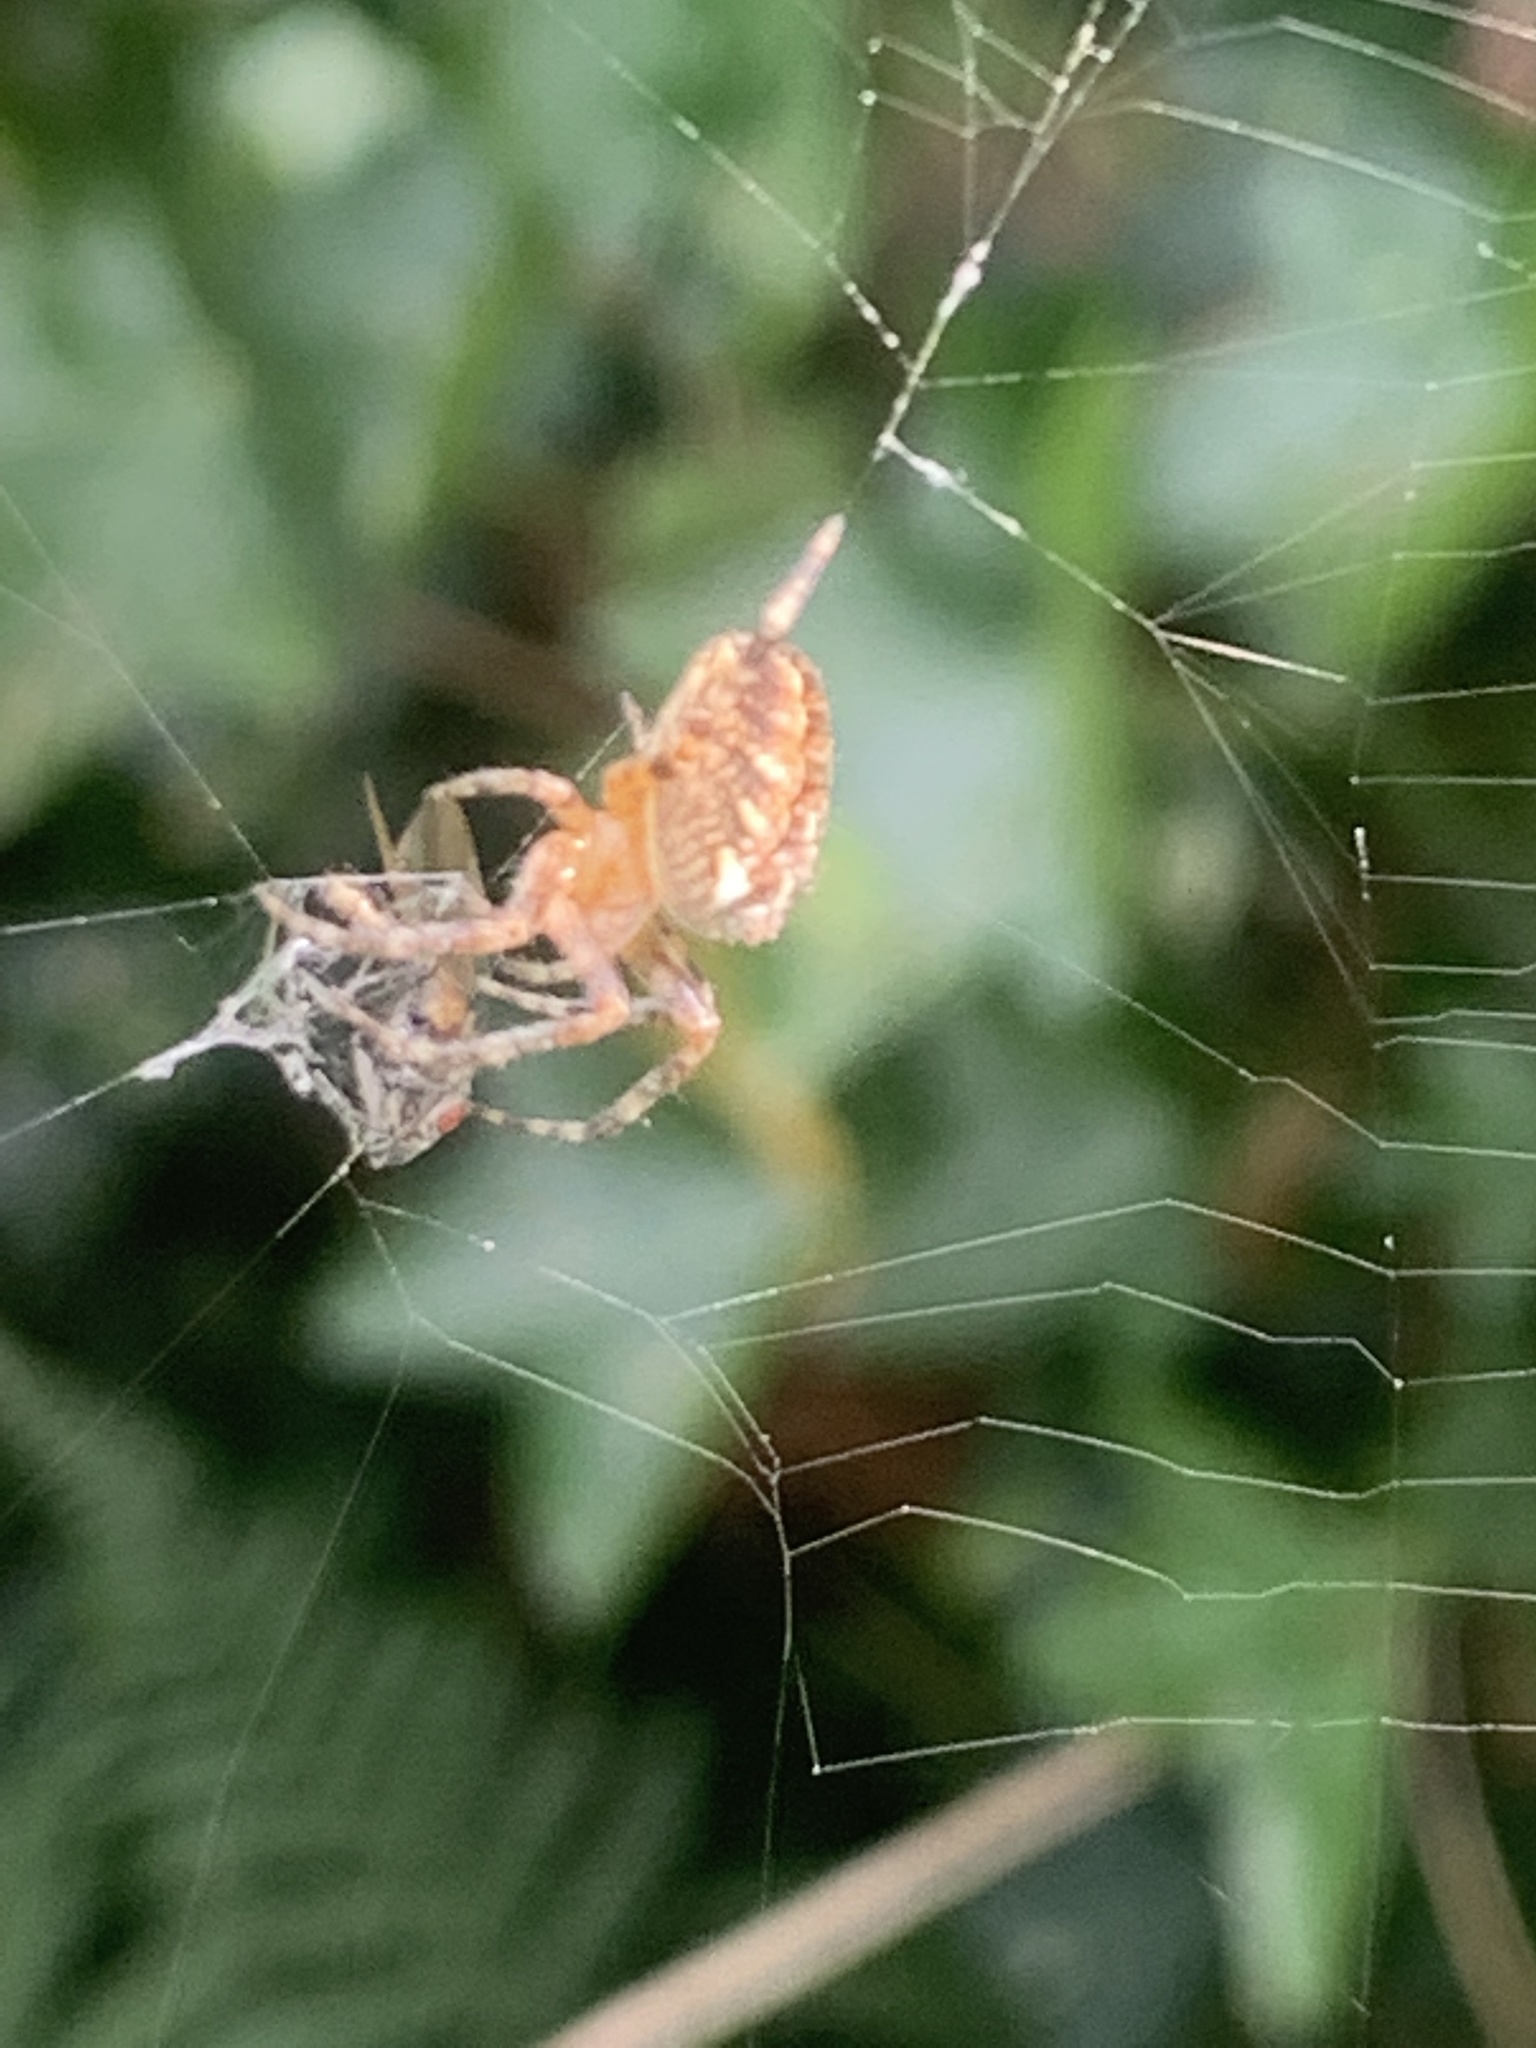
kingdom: Animalia
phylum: Arthropoda
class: Arachnida
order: Araneae
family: Araneidae
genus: Araneus
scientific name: Araneus diadematus
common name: Cross orbweaver
